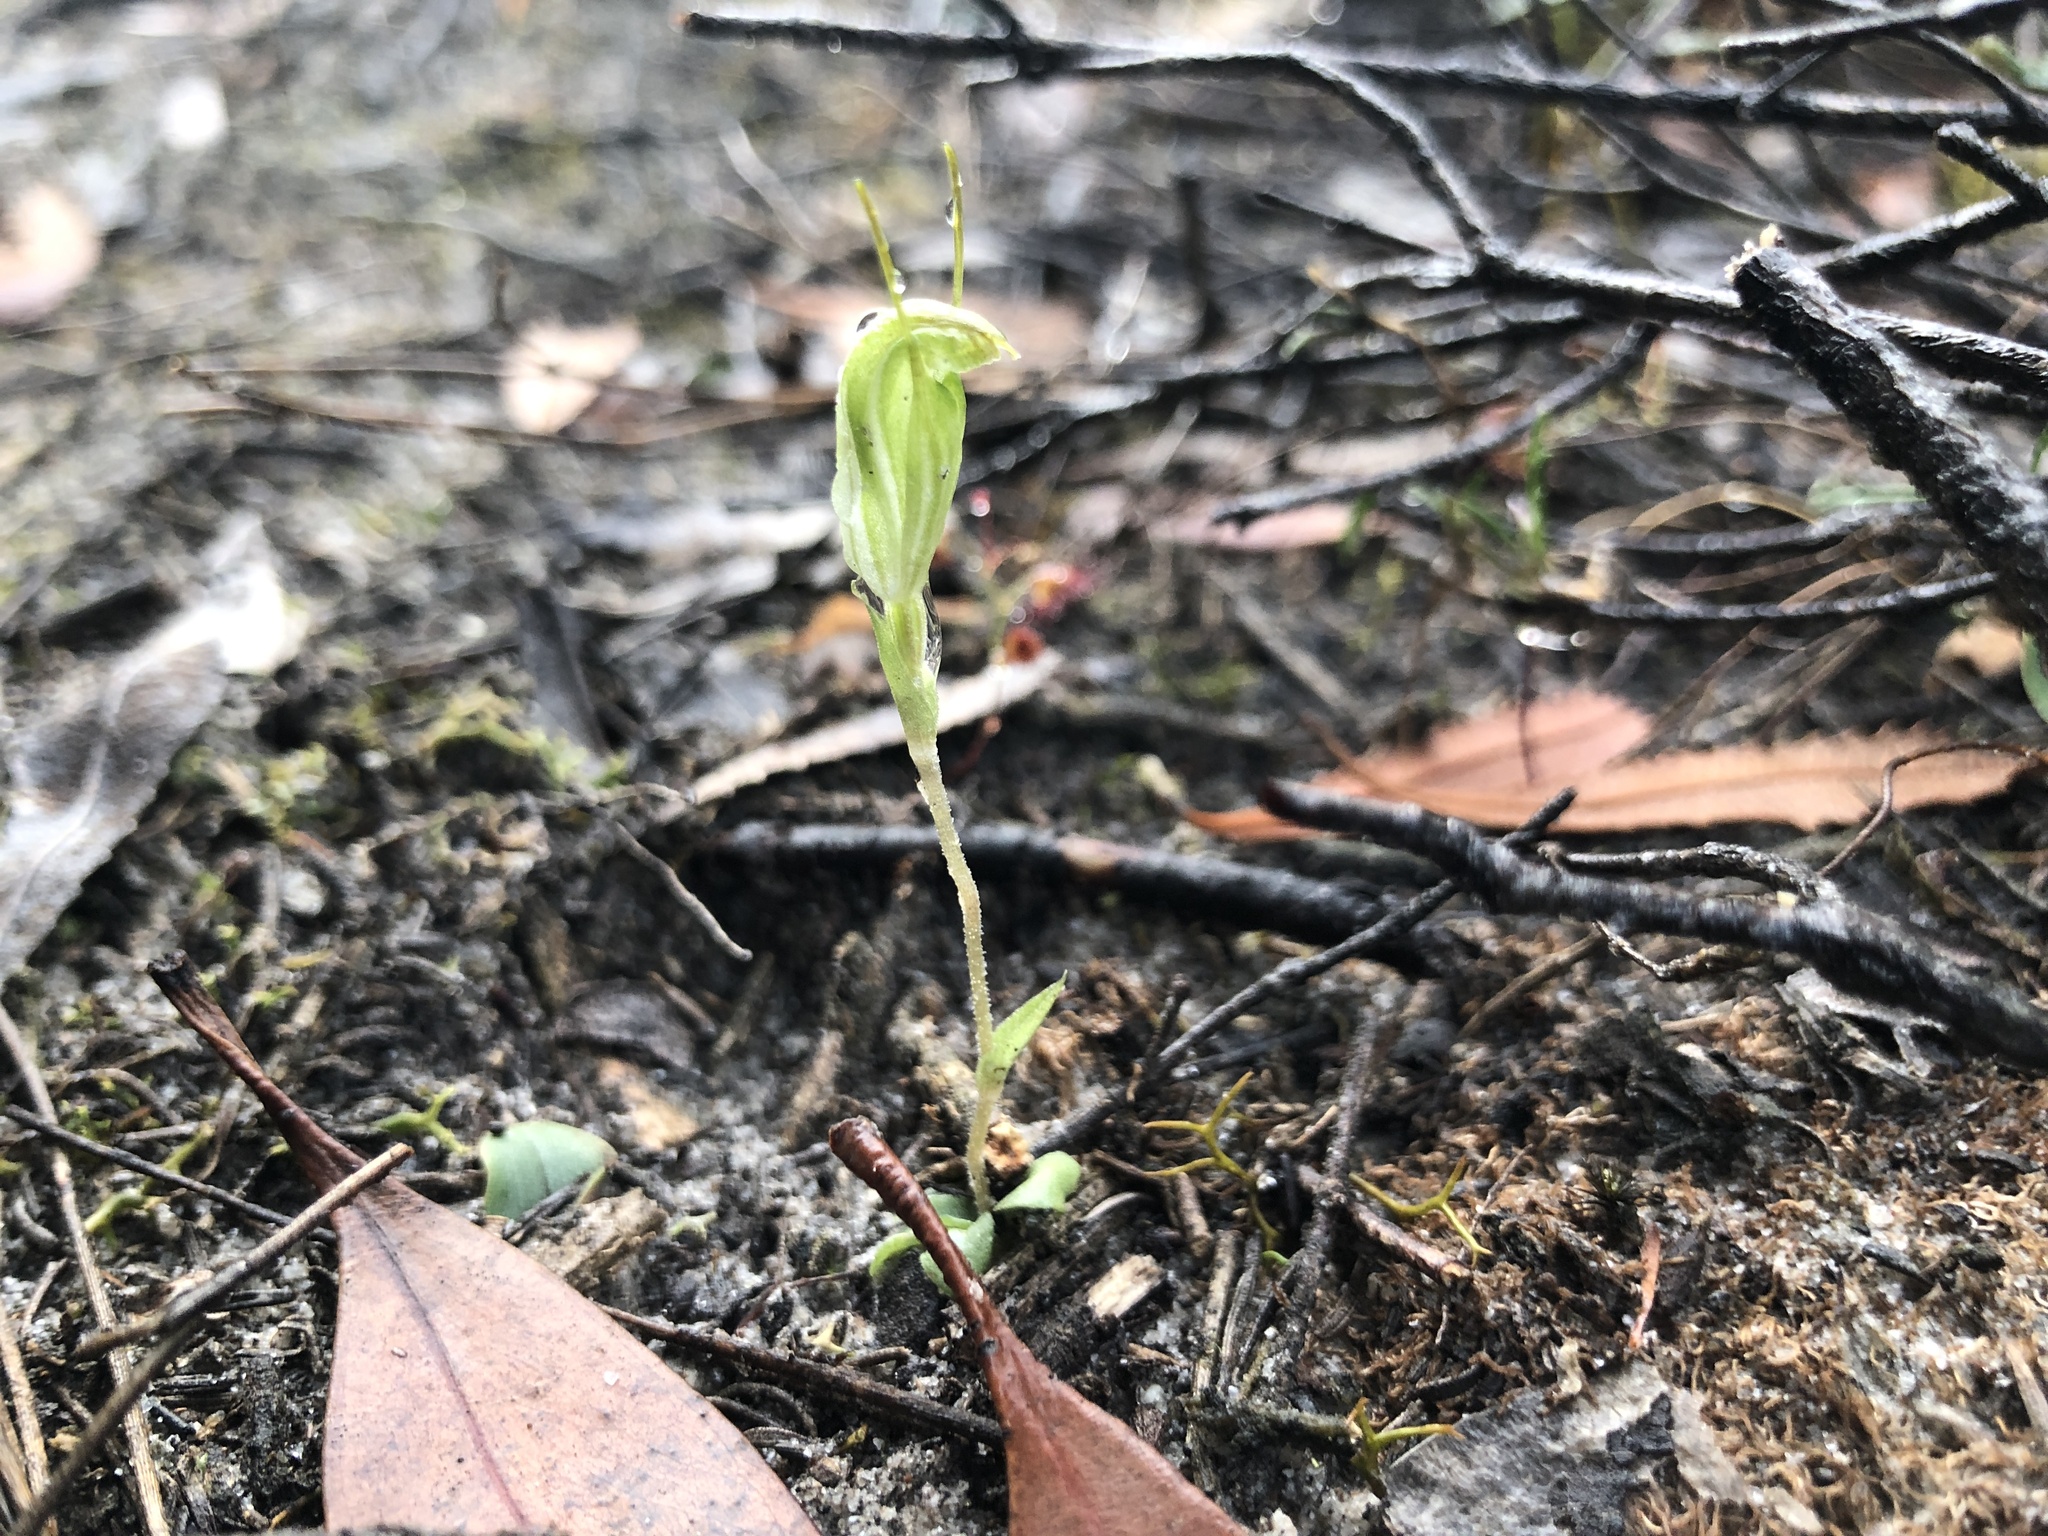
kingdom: Plantae
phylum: Tracheophyta
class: Liliopsida
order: Asparagales
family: Orchidaceae
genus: Pterostylis
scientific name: Pterostylis nana
